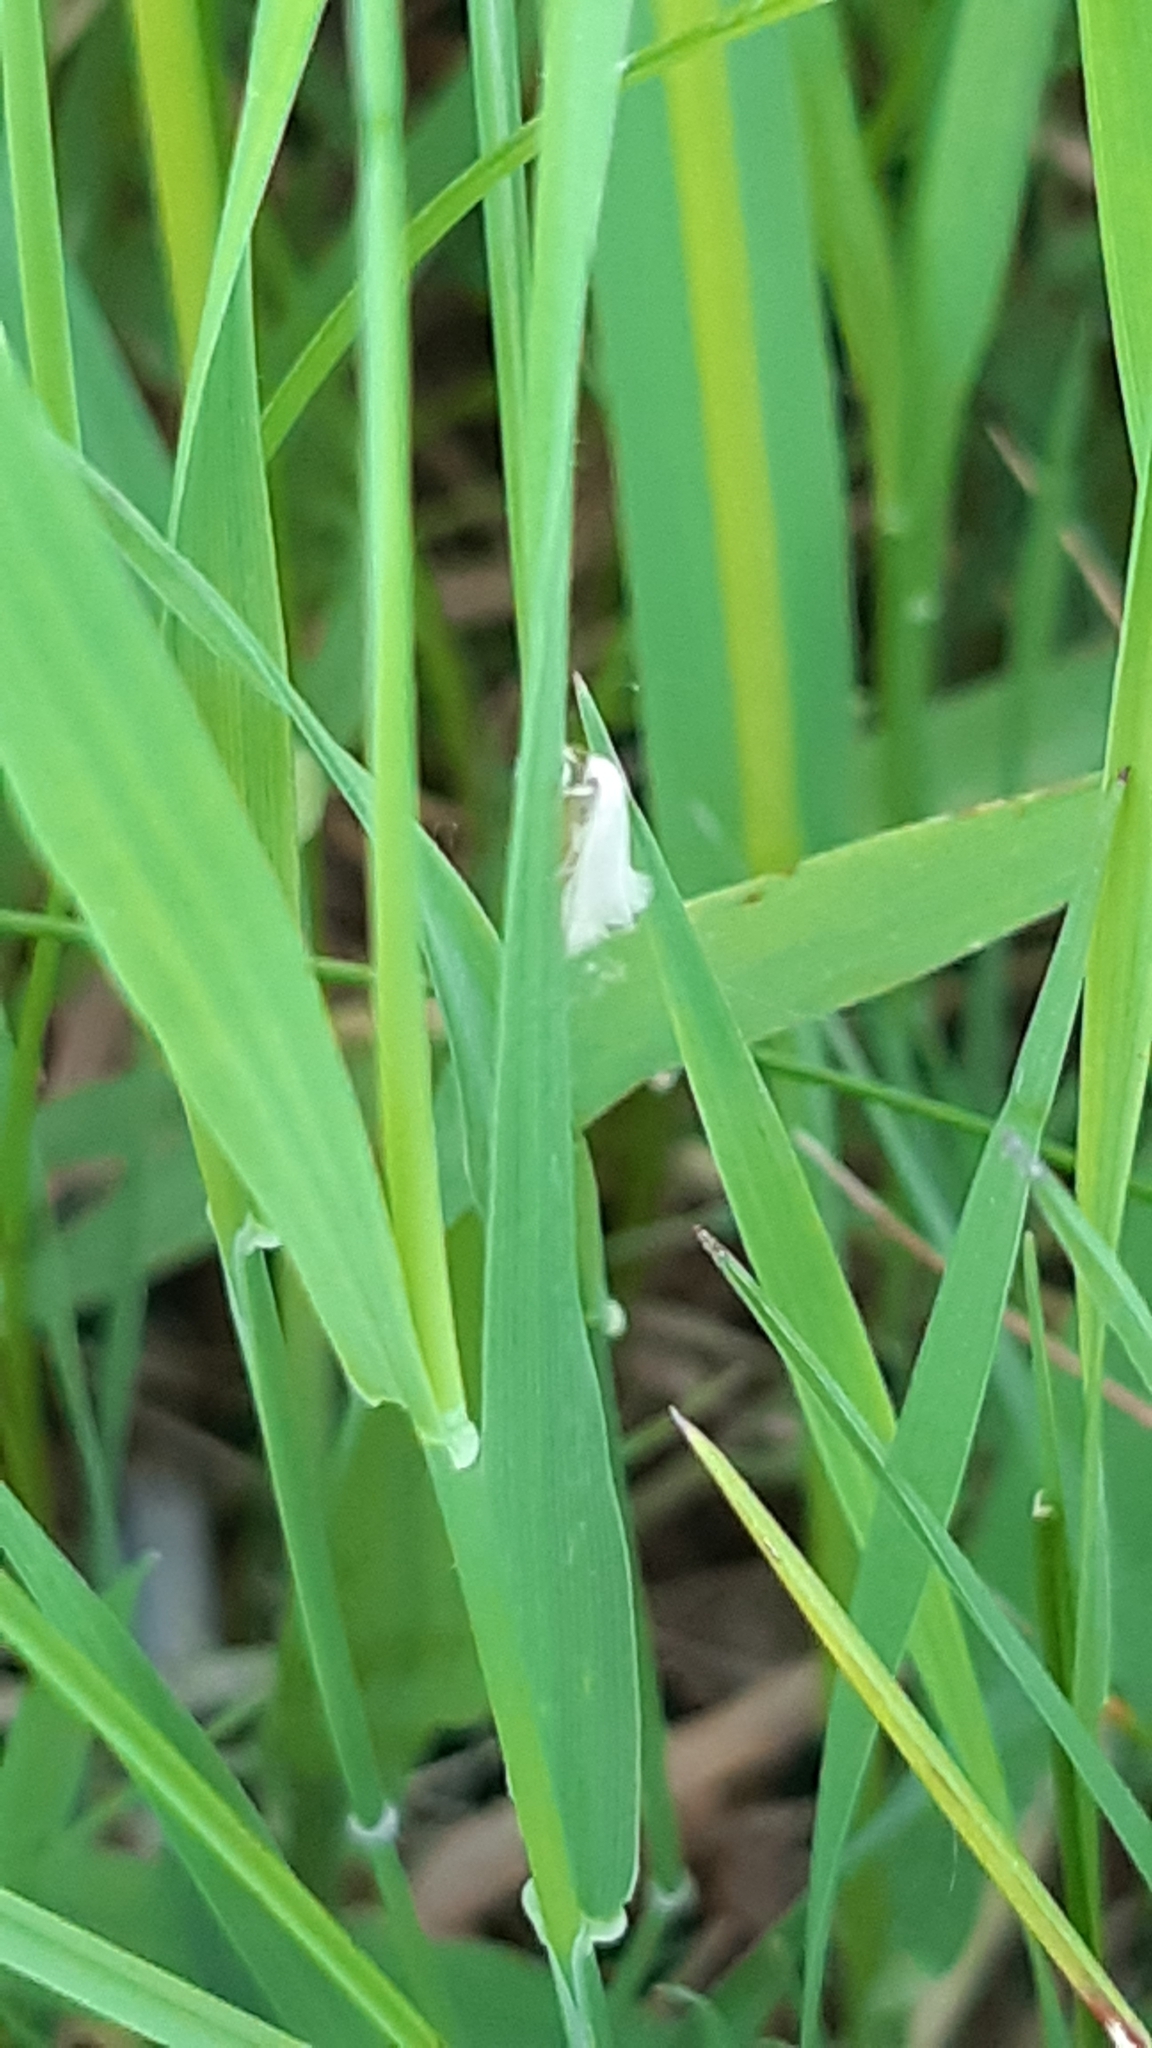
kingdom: Animalia
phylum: Arthropoda
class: Insecta
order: Lepidoptera
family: Elachistidae
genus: Elachista
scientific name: Elachista argentella
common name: Swan-feather dwarf
